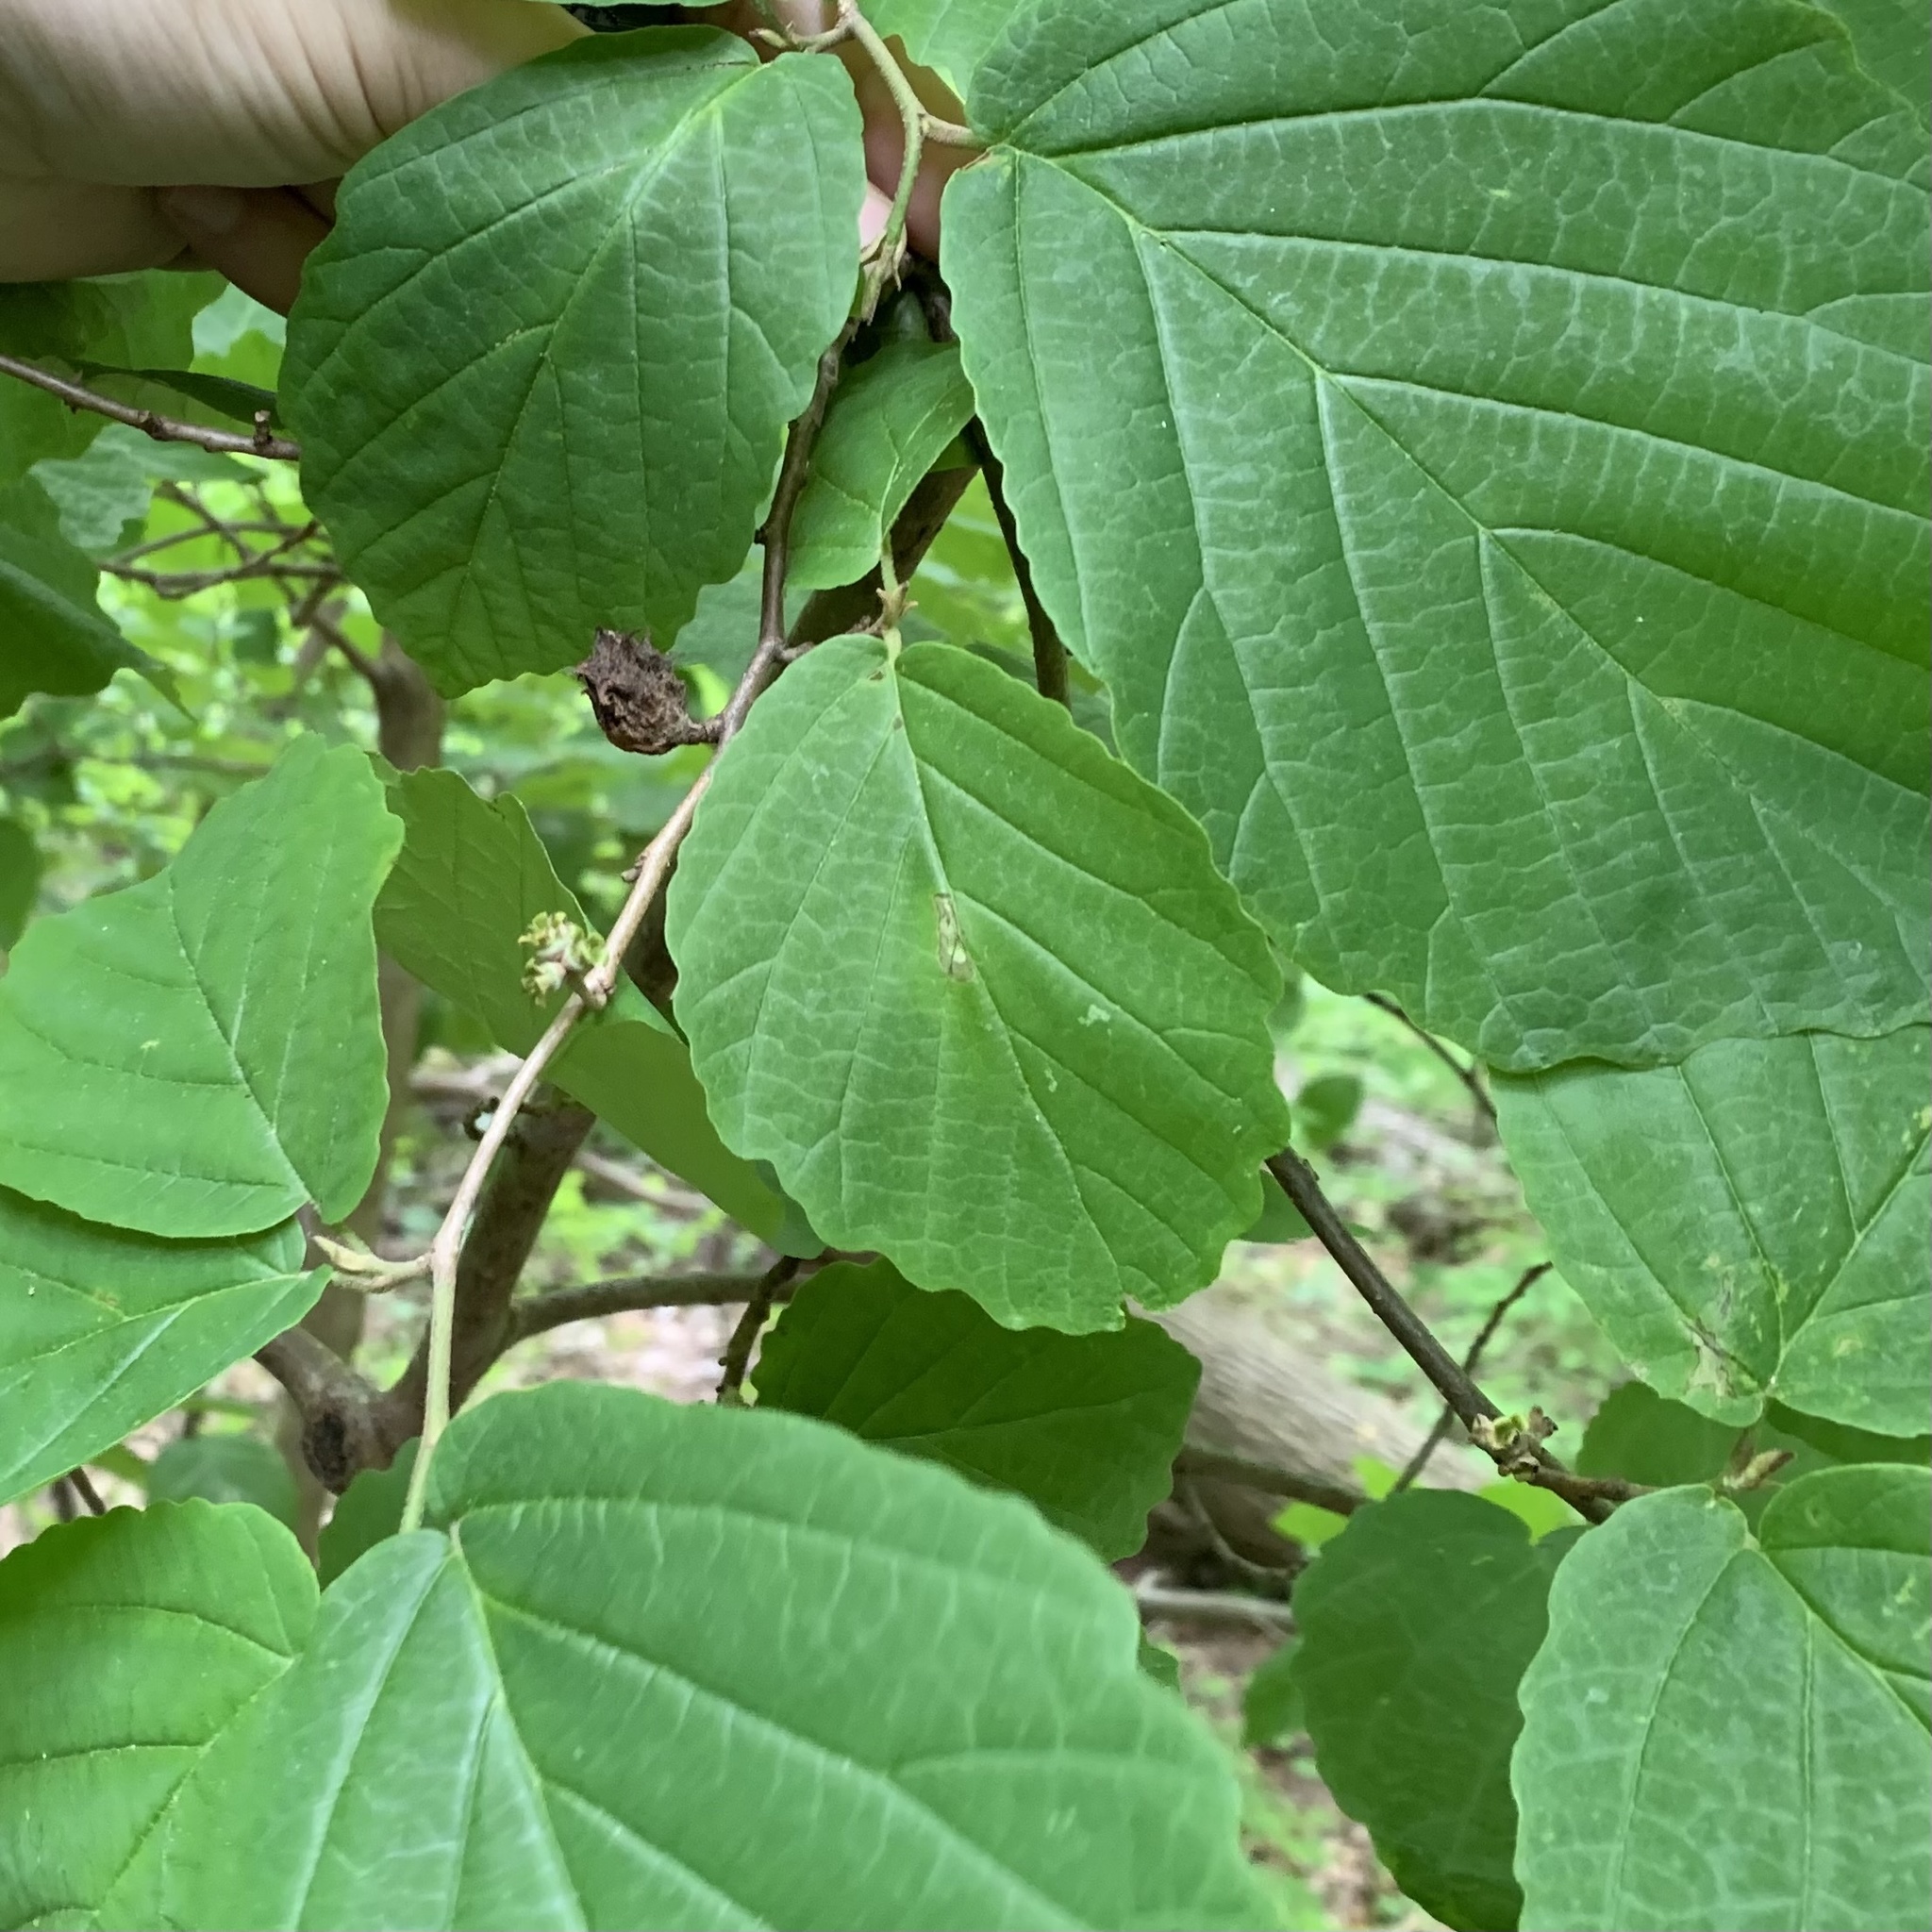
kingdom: Animalia
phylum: Arthropoda
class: Insecta
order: Hemiptera
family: Aphididae
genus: Hamamelistes
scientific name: Hamamelistes spinosus
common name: Witch hazel gall aphid
